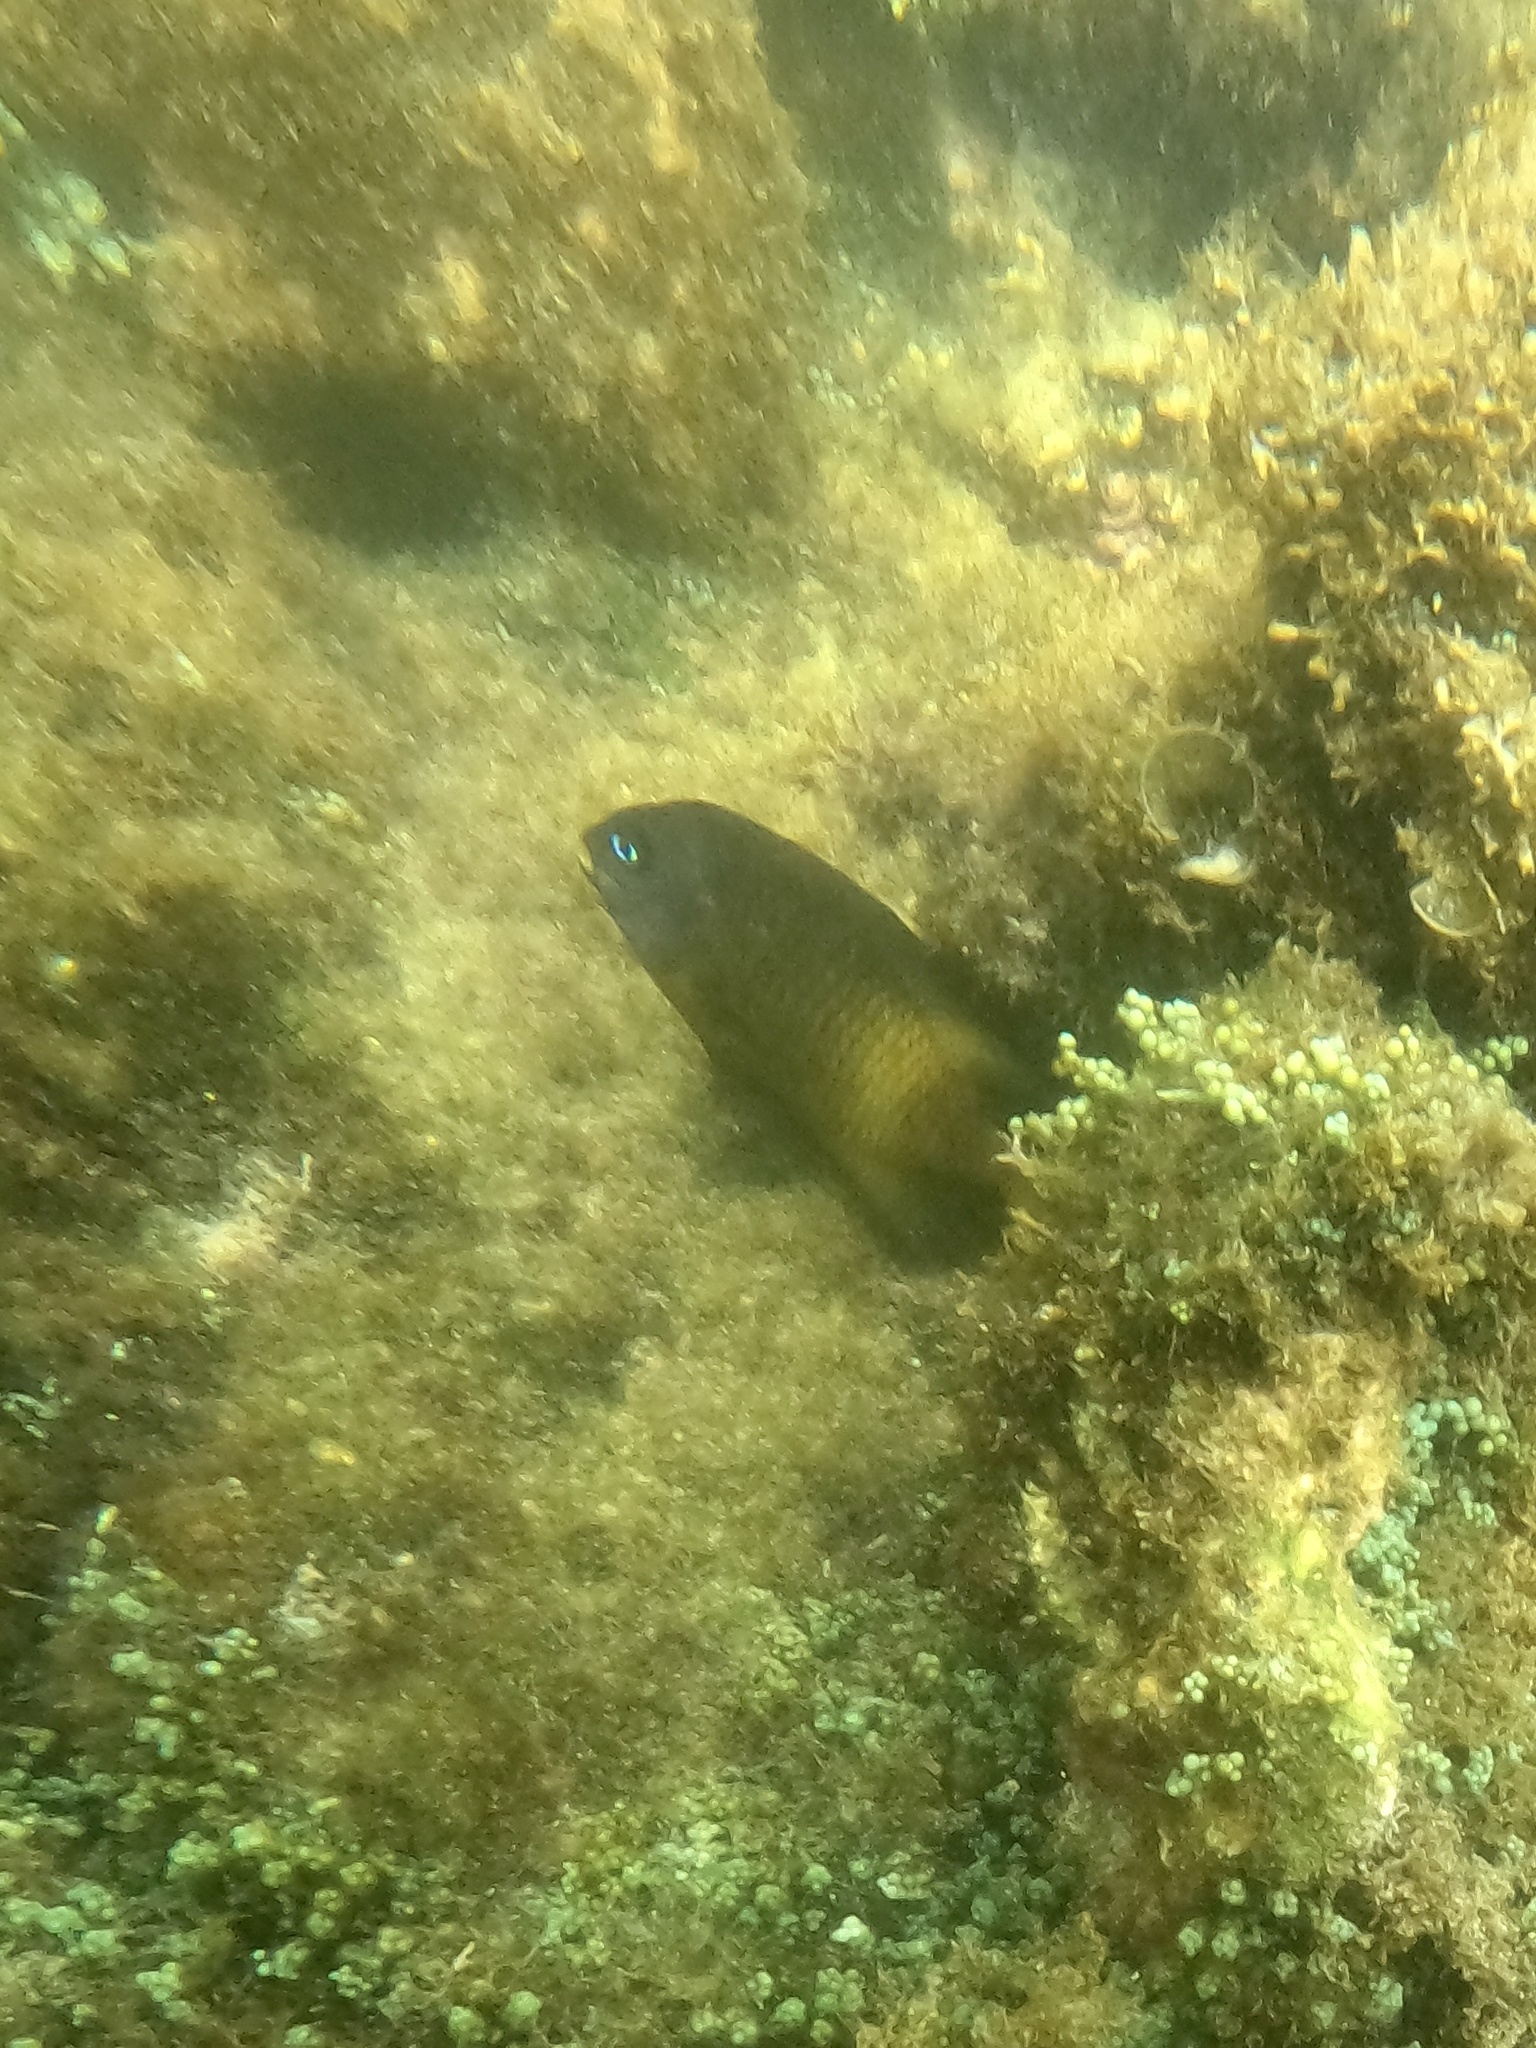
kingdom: Animalia
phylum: Chordata
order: Perciformes
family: Pomacentridae
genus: Stegastes
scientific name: Stegastes arcifrons
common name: Galapagos gregory
